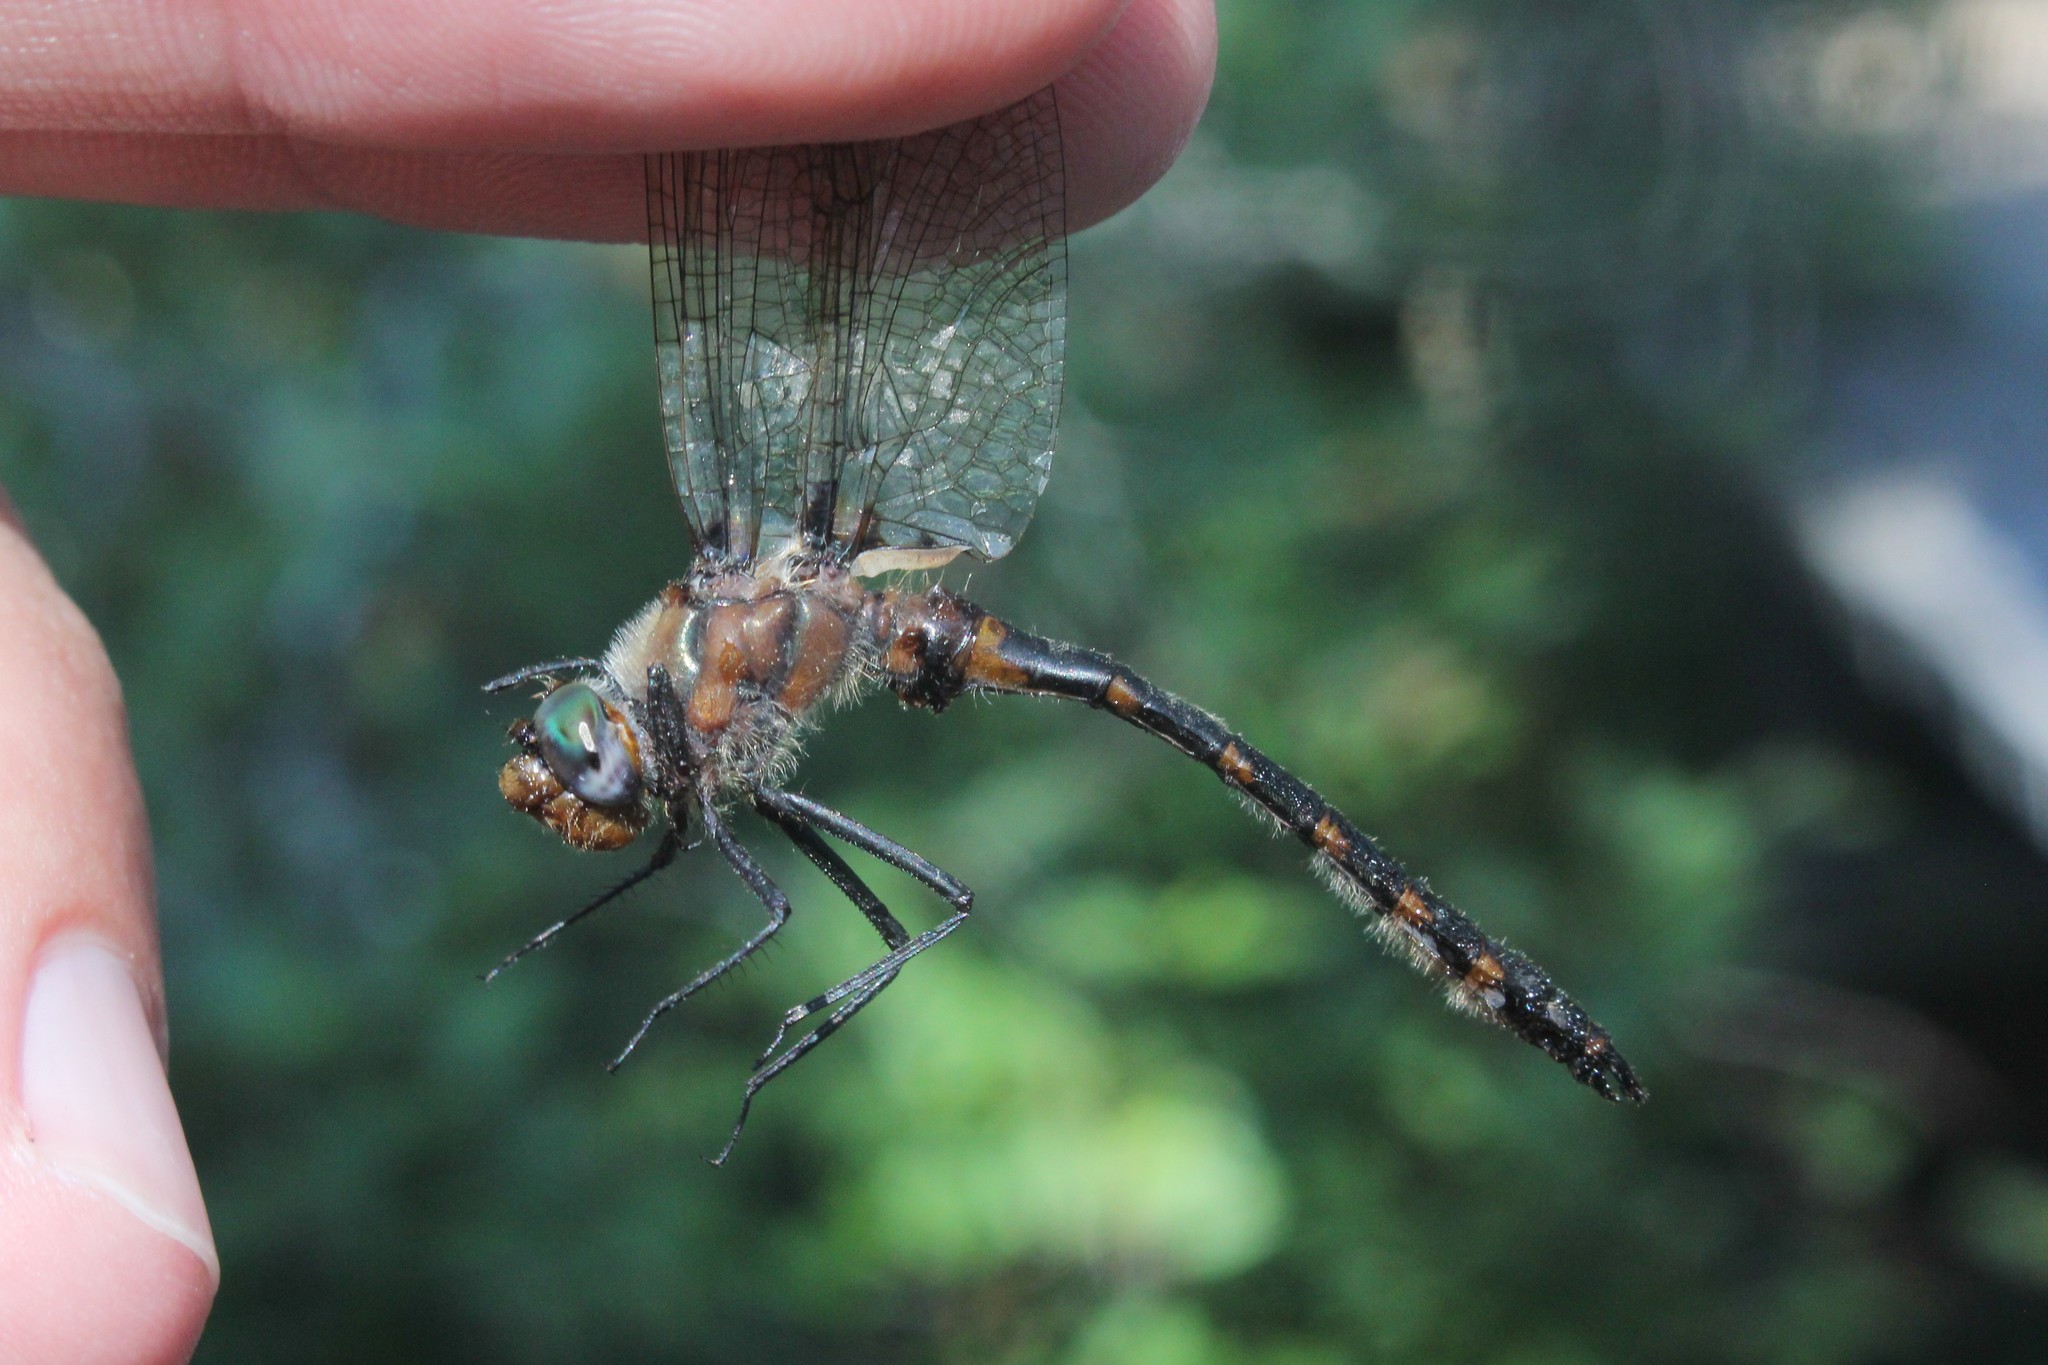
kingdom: Animalia
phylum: Arthropoda
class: Insecta
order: Odonata
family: Corduliidae
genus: Helocordulia
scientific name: Helocordulia uhleri
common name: Uhler's sundragon
